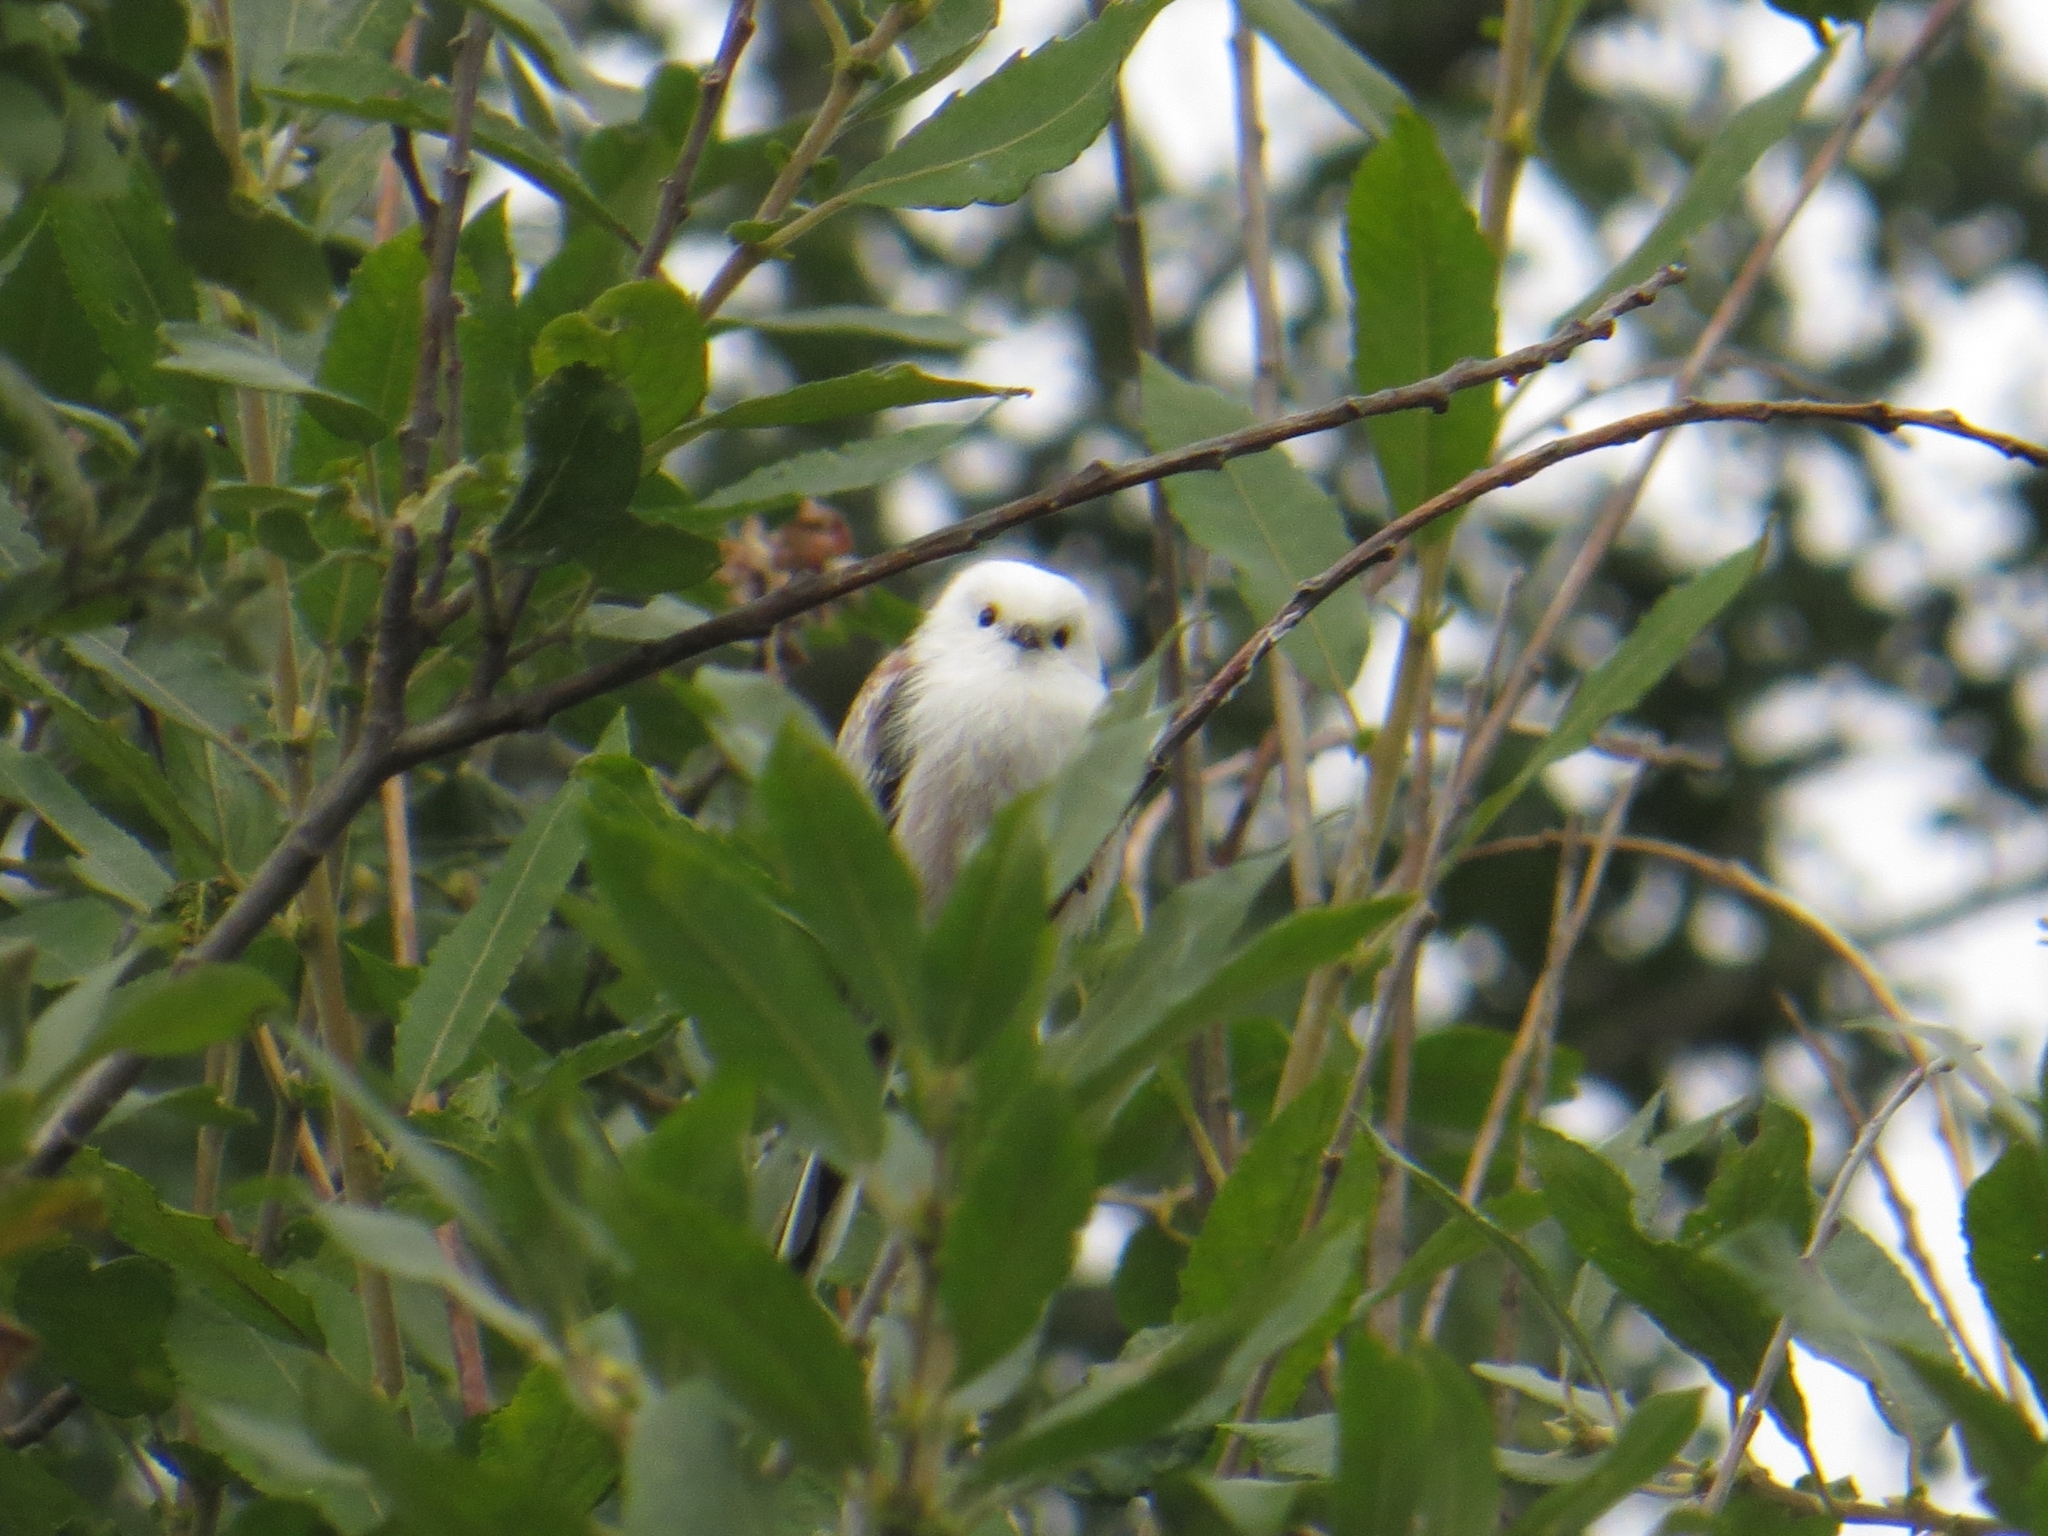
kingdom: Animalia
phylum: Chordata
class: Aves
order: Passeriformes
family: Aegithalidae
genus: Aegithalos
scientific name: Aegithalos caudatus
